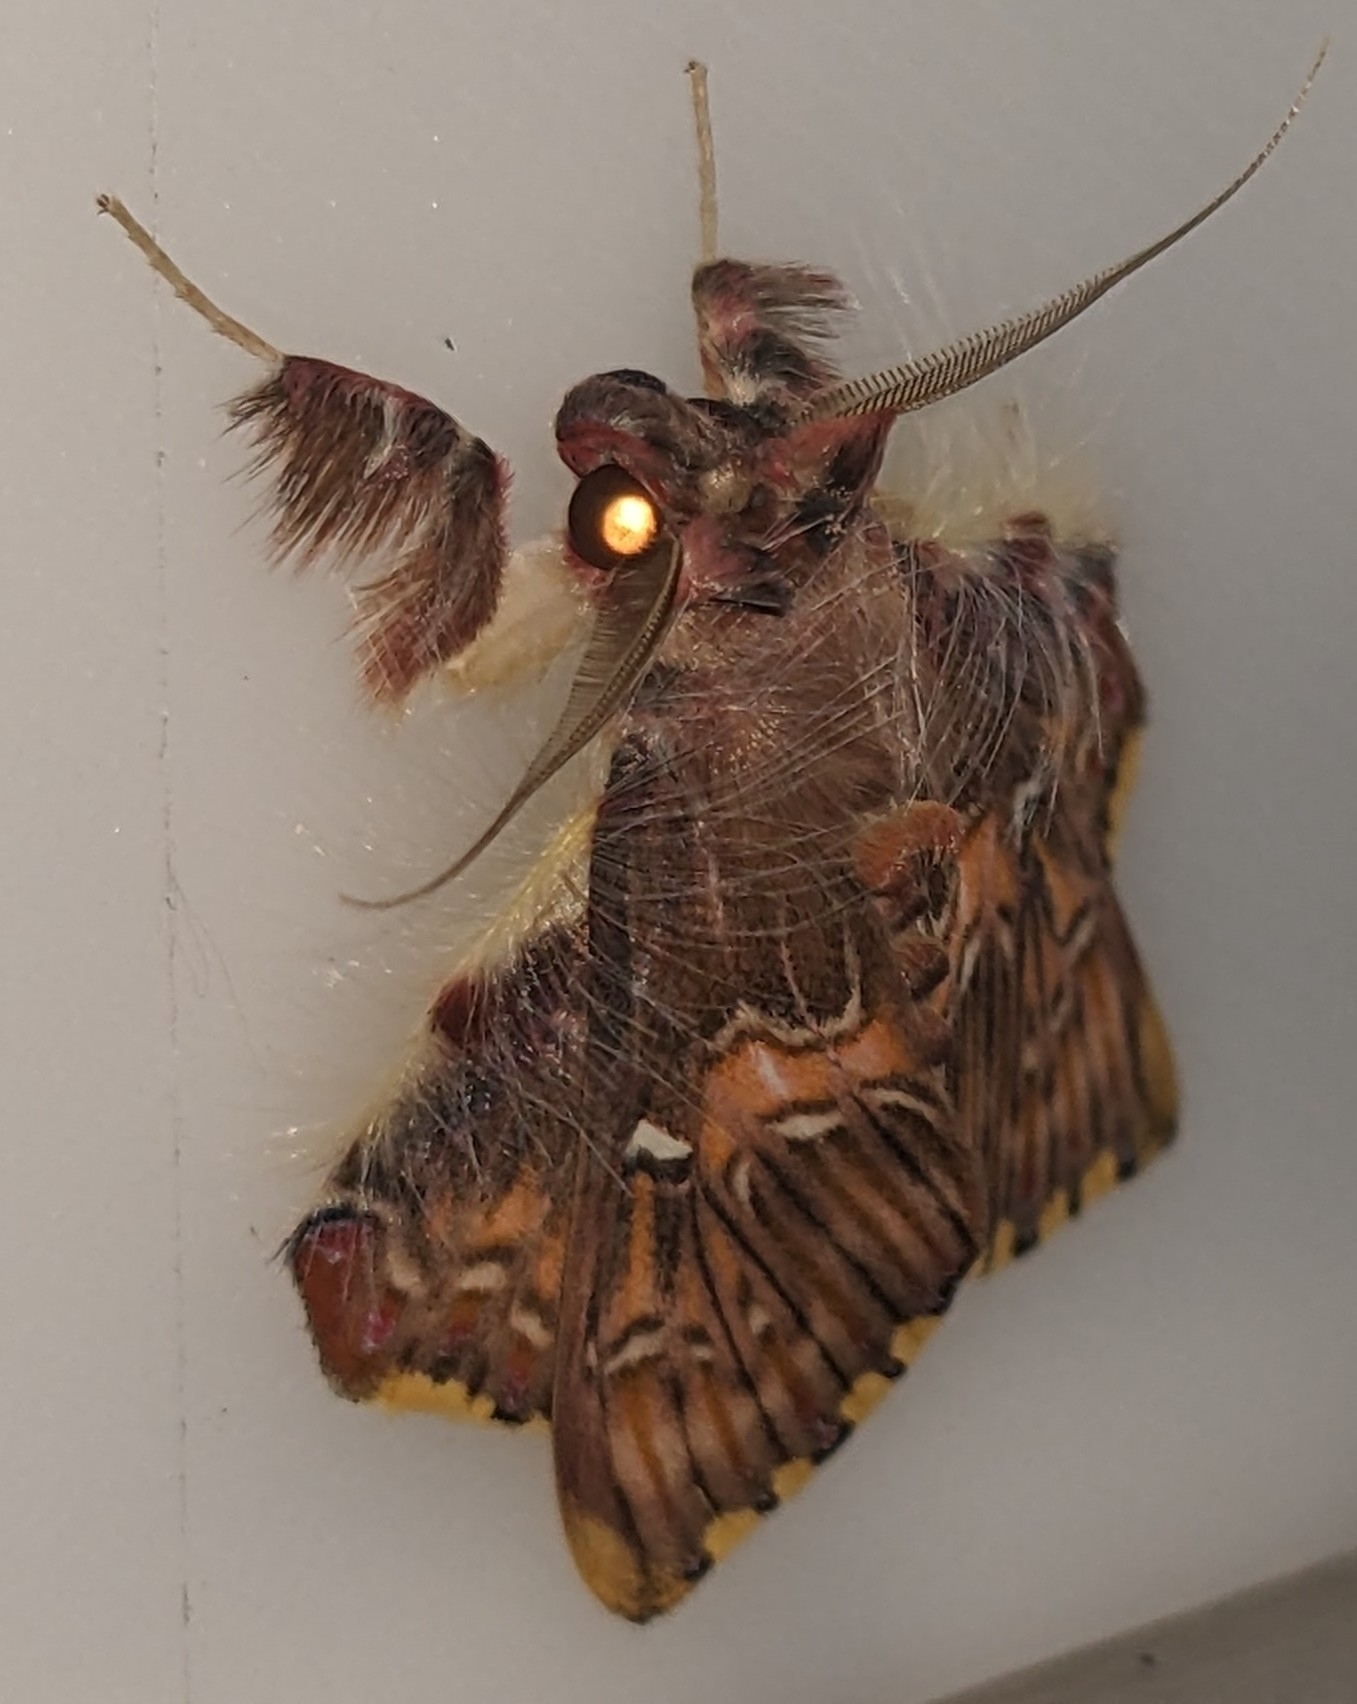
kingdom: Animalia
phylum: Arthropoda
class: Insecta
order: Lepidoptera
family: Erebidae
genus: Sosxetra
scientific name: Sosxetra grata
